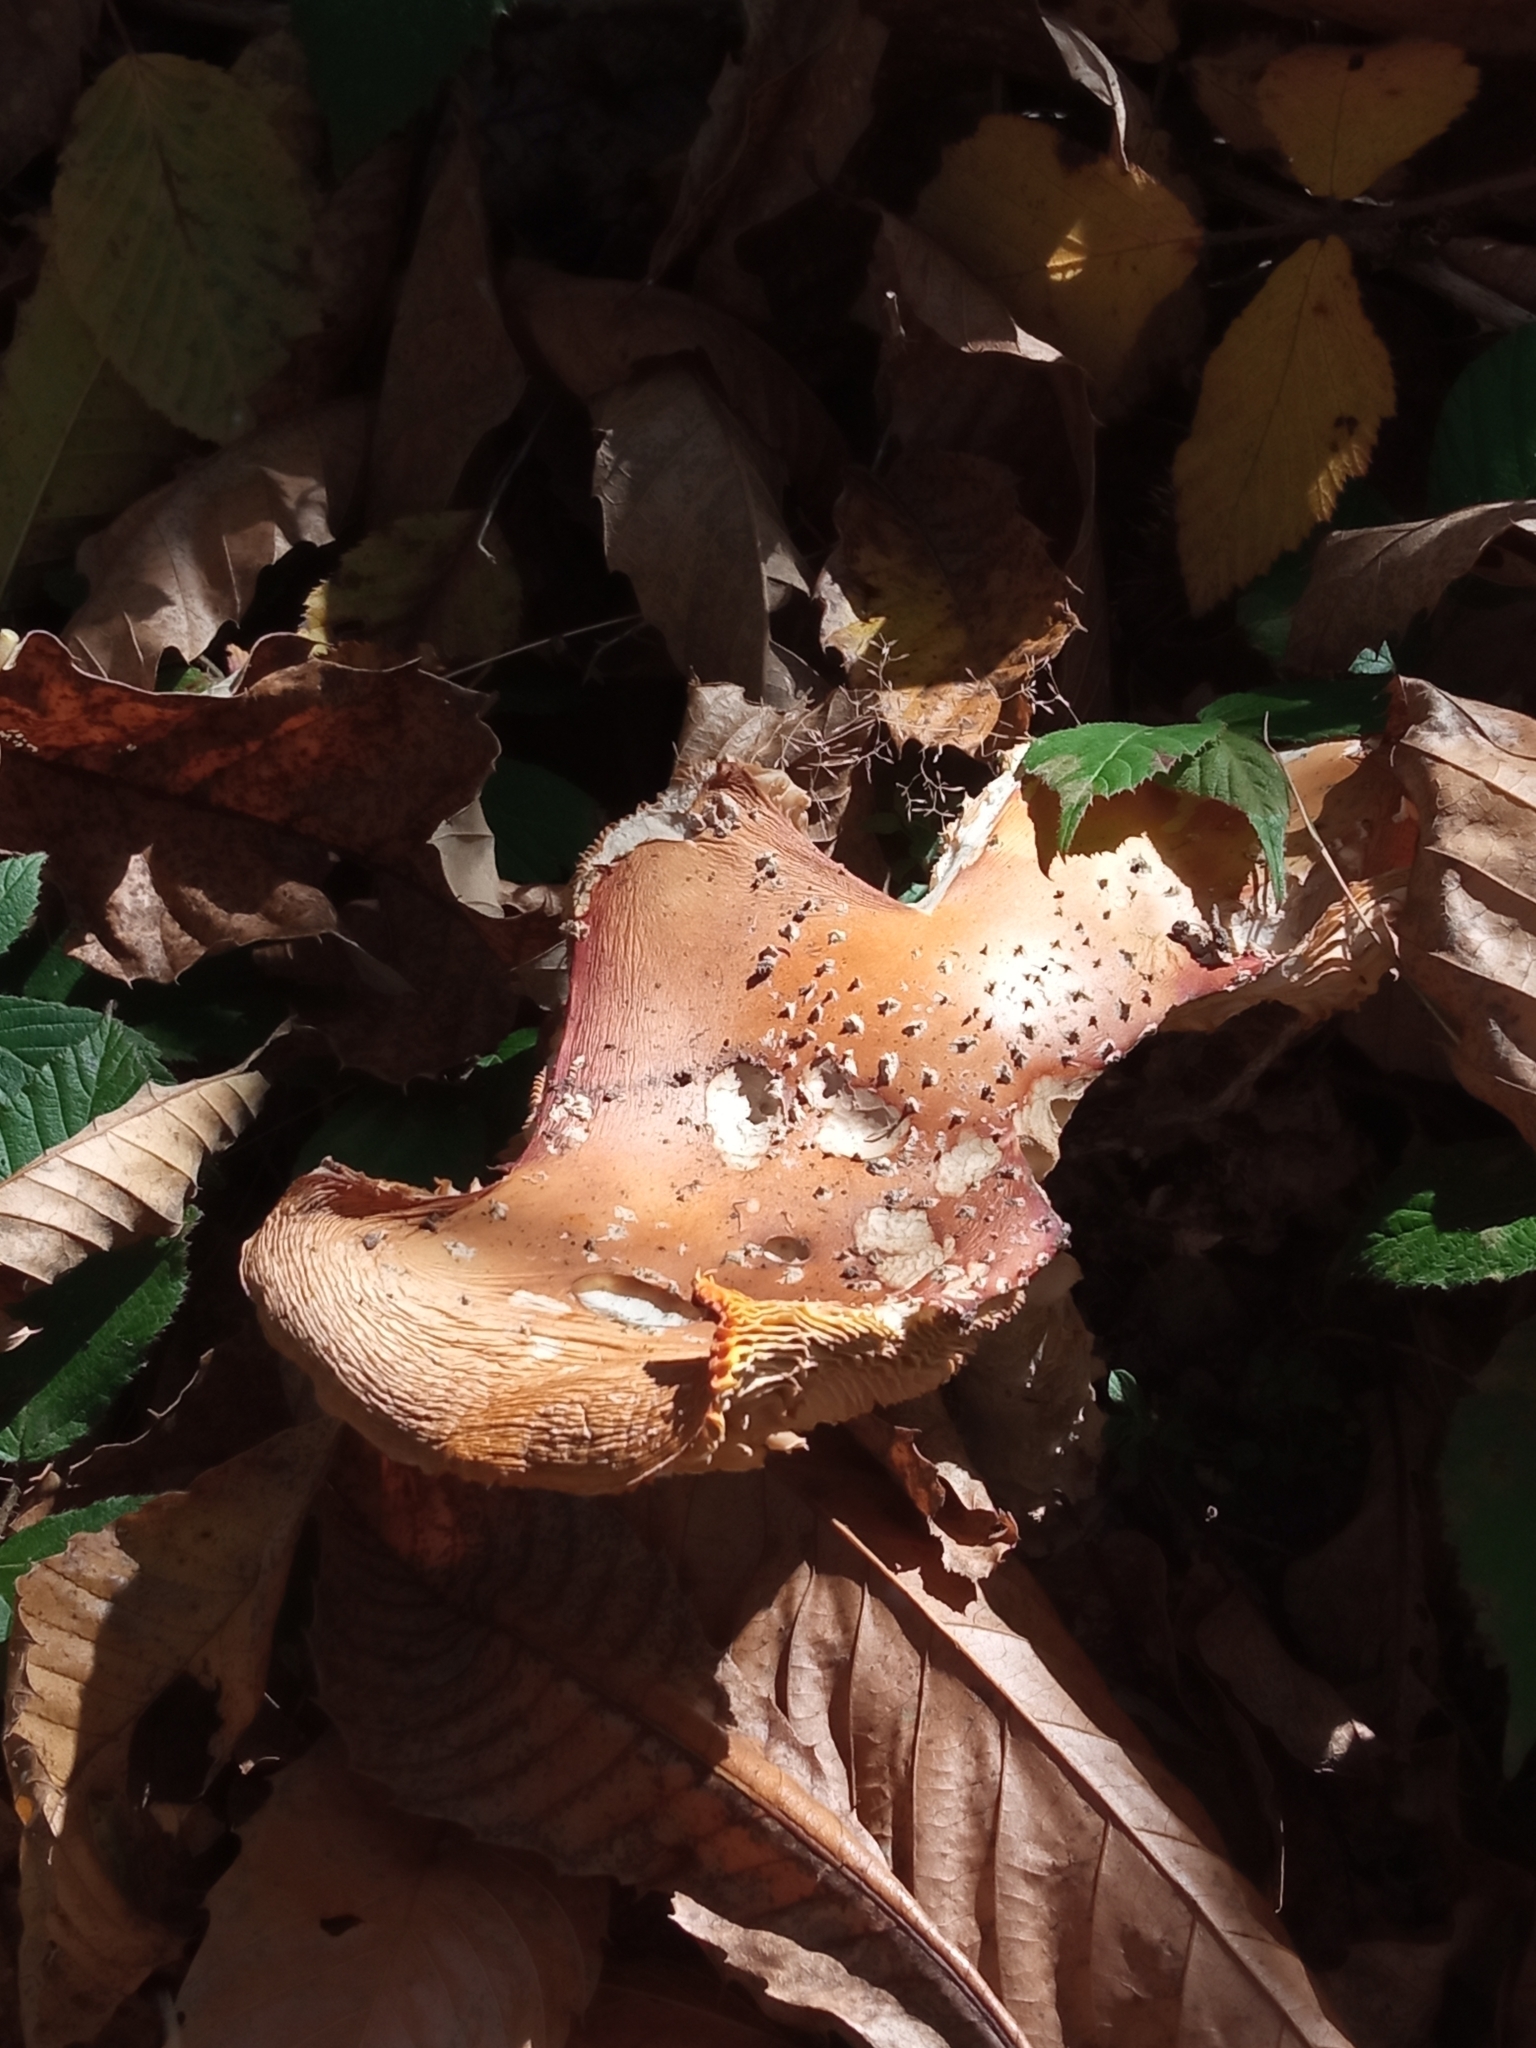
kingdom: Fungi
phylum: Basidiomycota
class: Agaricomycetes
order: Agaricales
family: Amanitaceae
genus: Amanita
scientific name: Amanita muscaria
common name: Fly agaric
